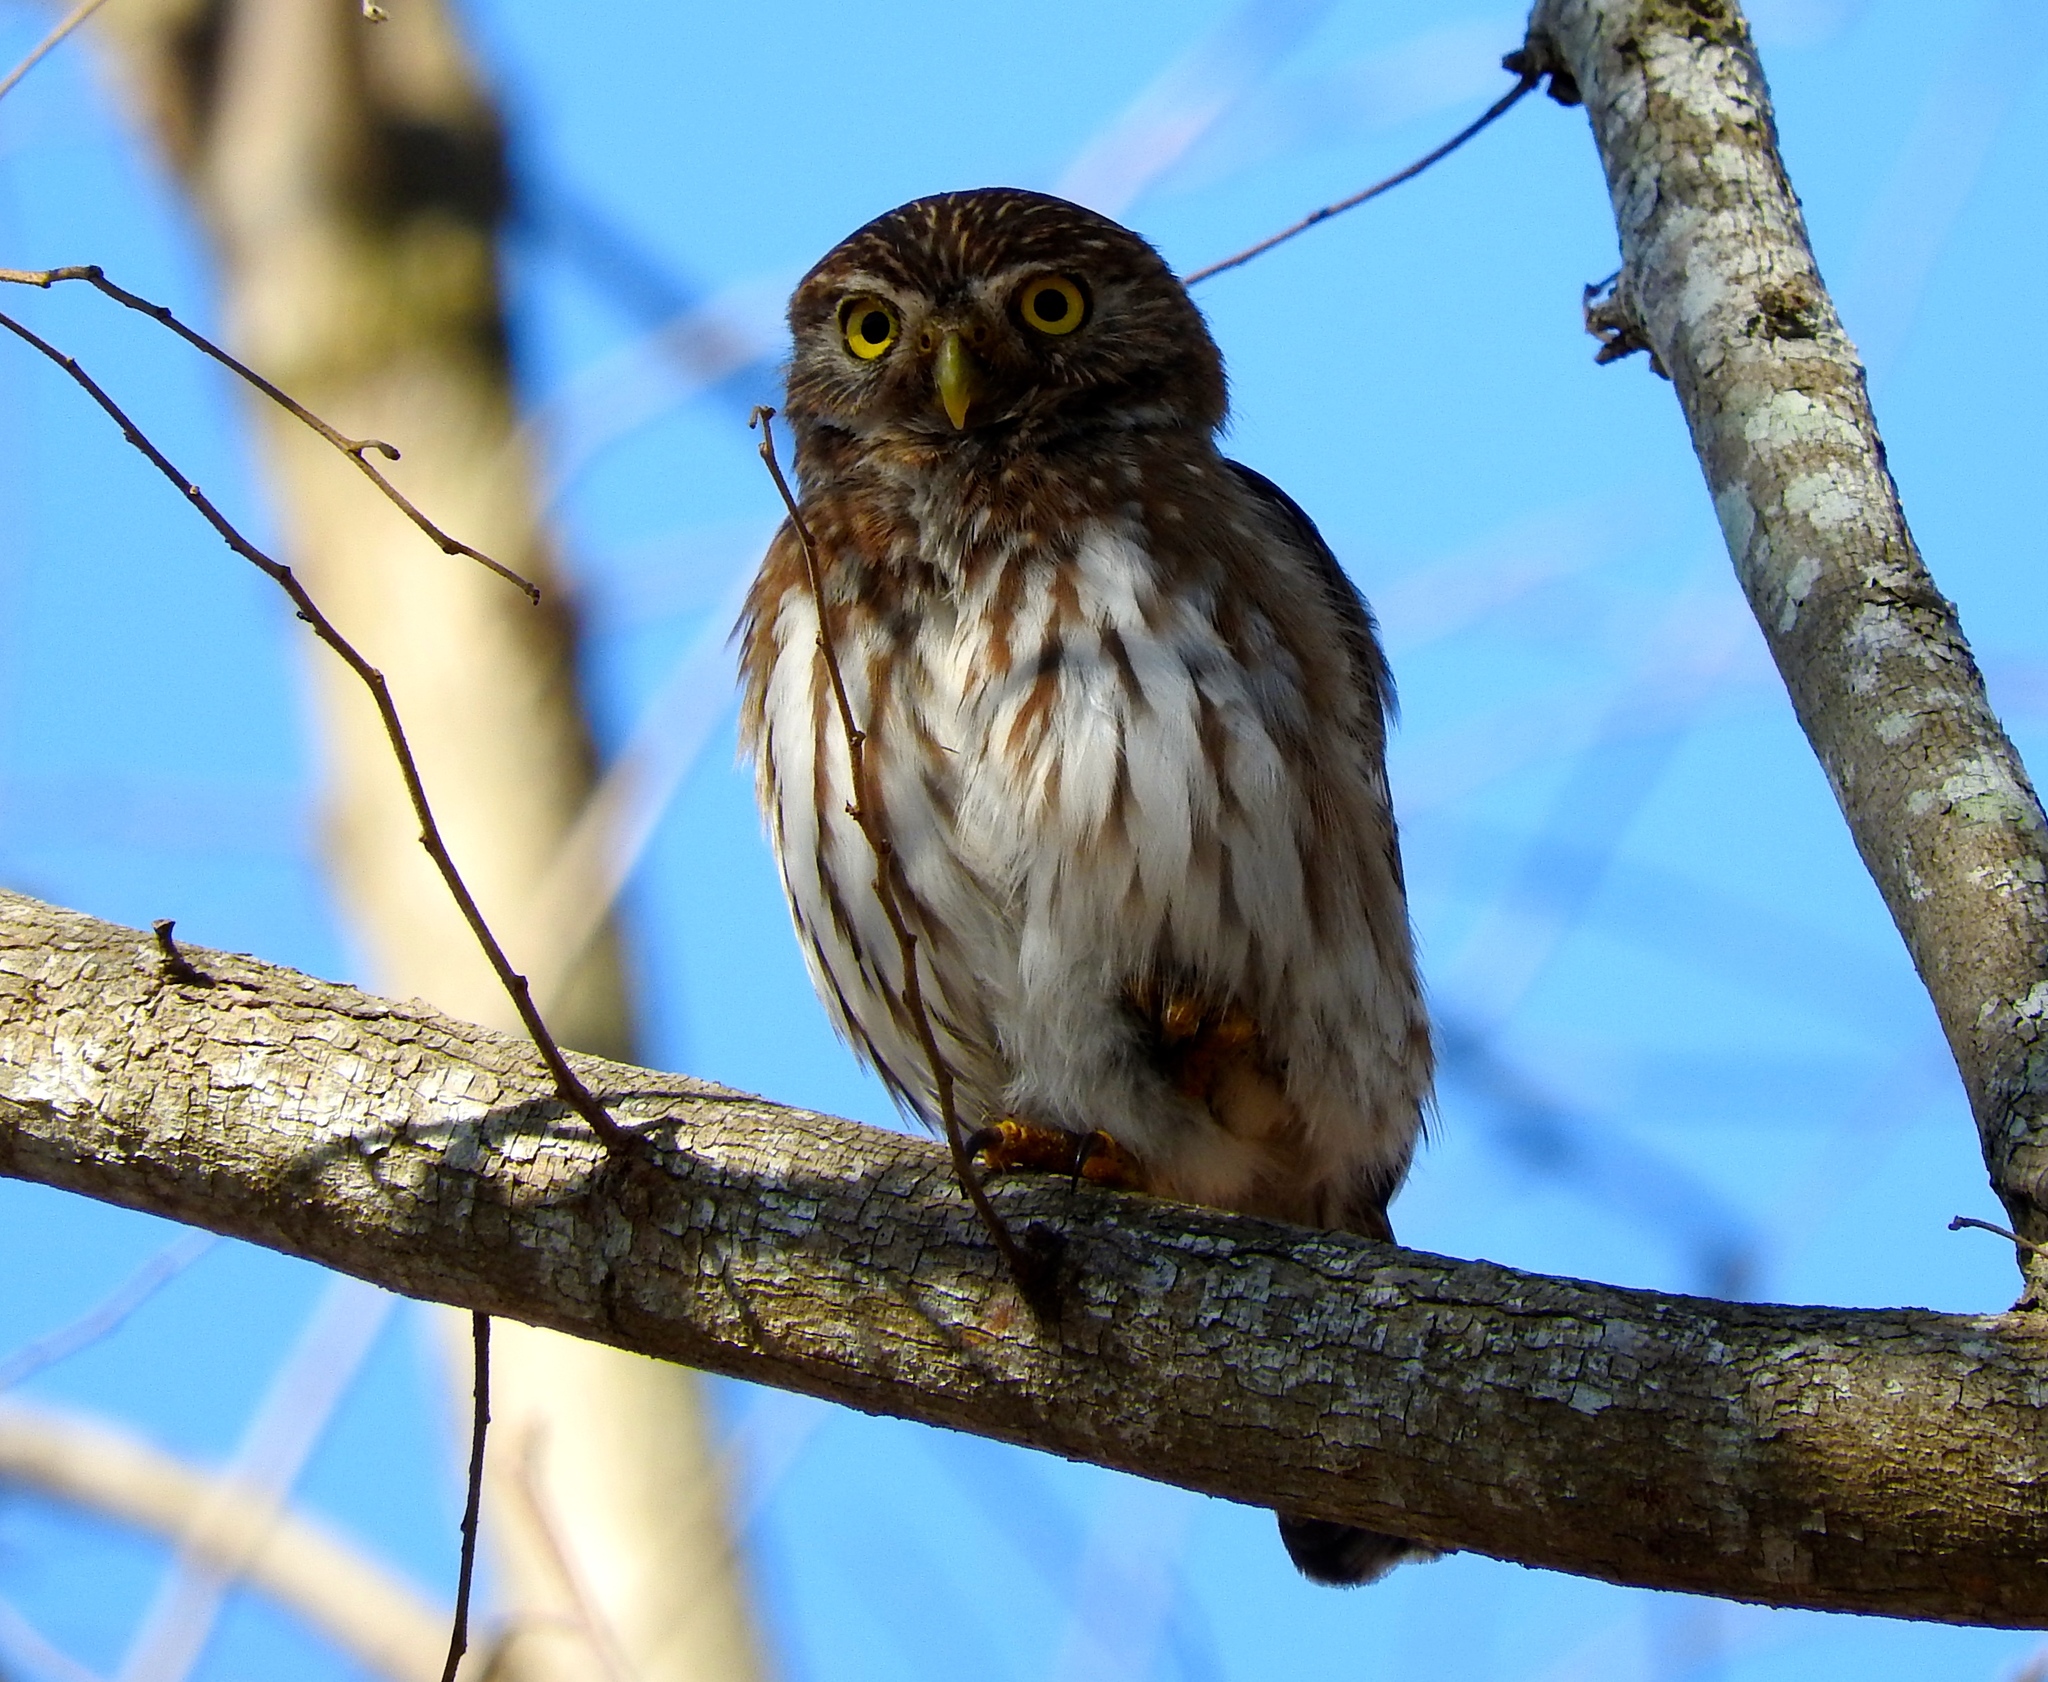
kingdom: Animalia
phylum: Chordata
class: Aves
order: Strigiformes
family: Strigidae
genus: Glaucidium
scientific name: Glaucidium brasilianum
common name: Ferruginous pygmy-owl
